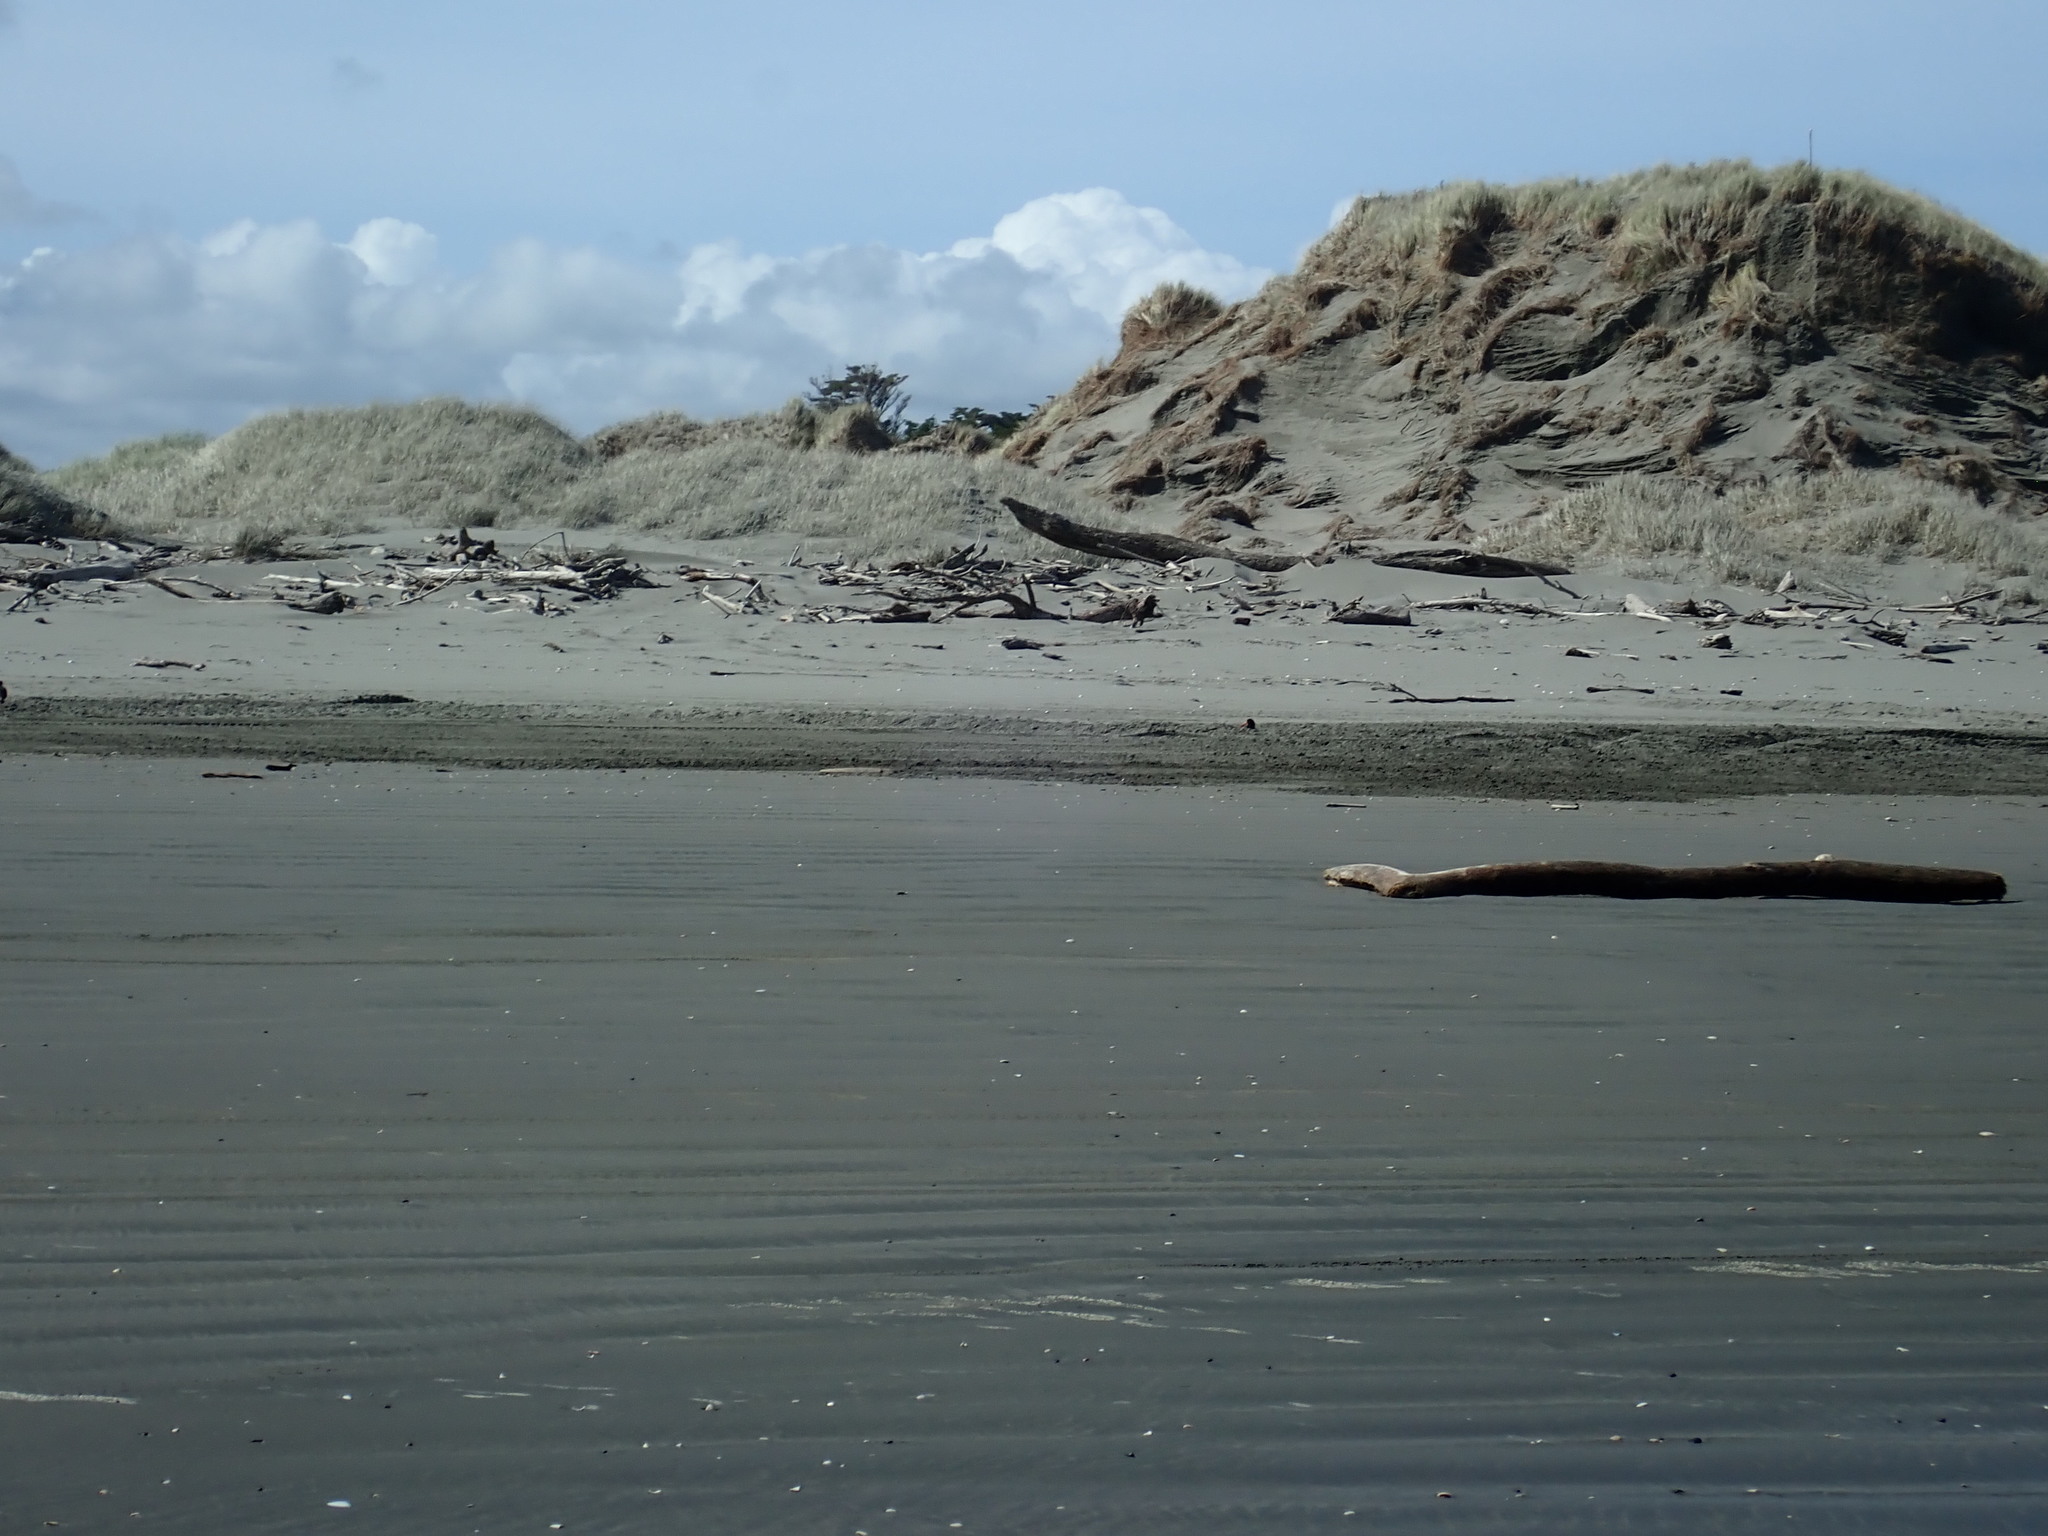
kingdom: Animalia
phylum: Chordata
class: Aves
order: Charadriiformes
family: Haematopodidae
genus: Haematopus
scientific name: Haematopus unicolor
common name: Variable oystercatcher
